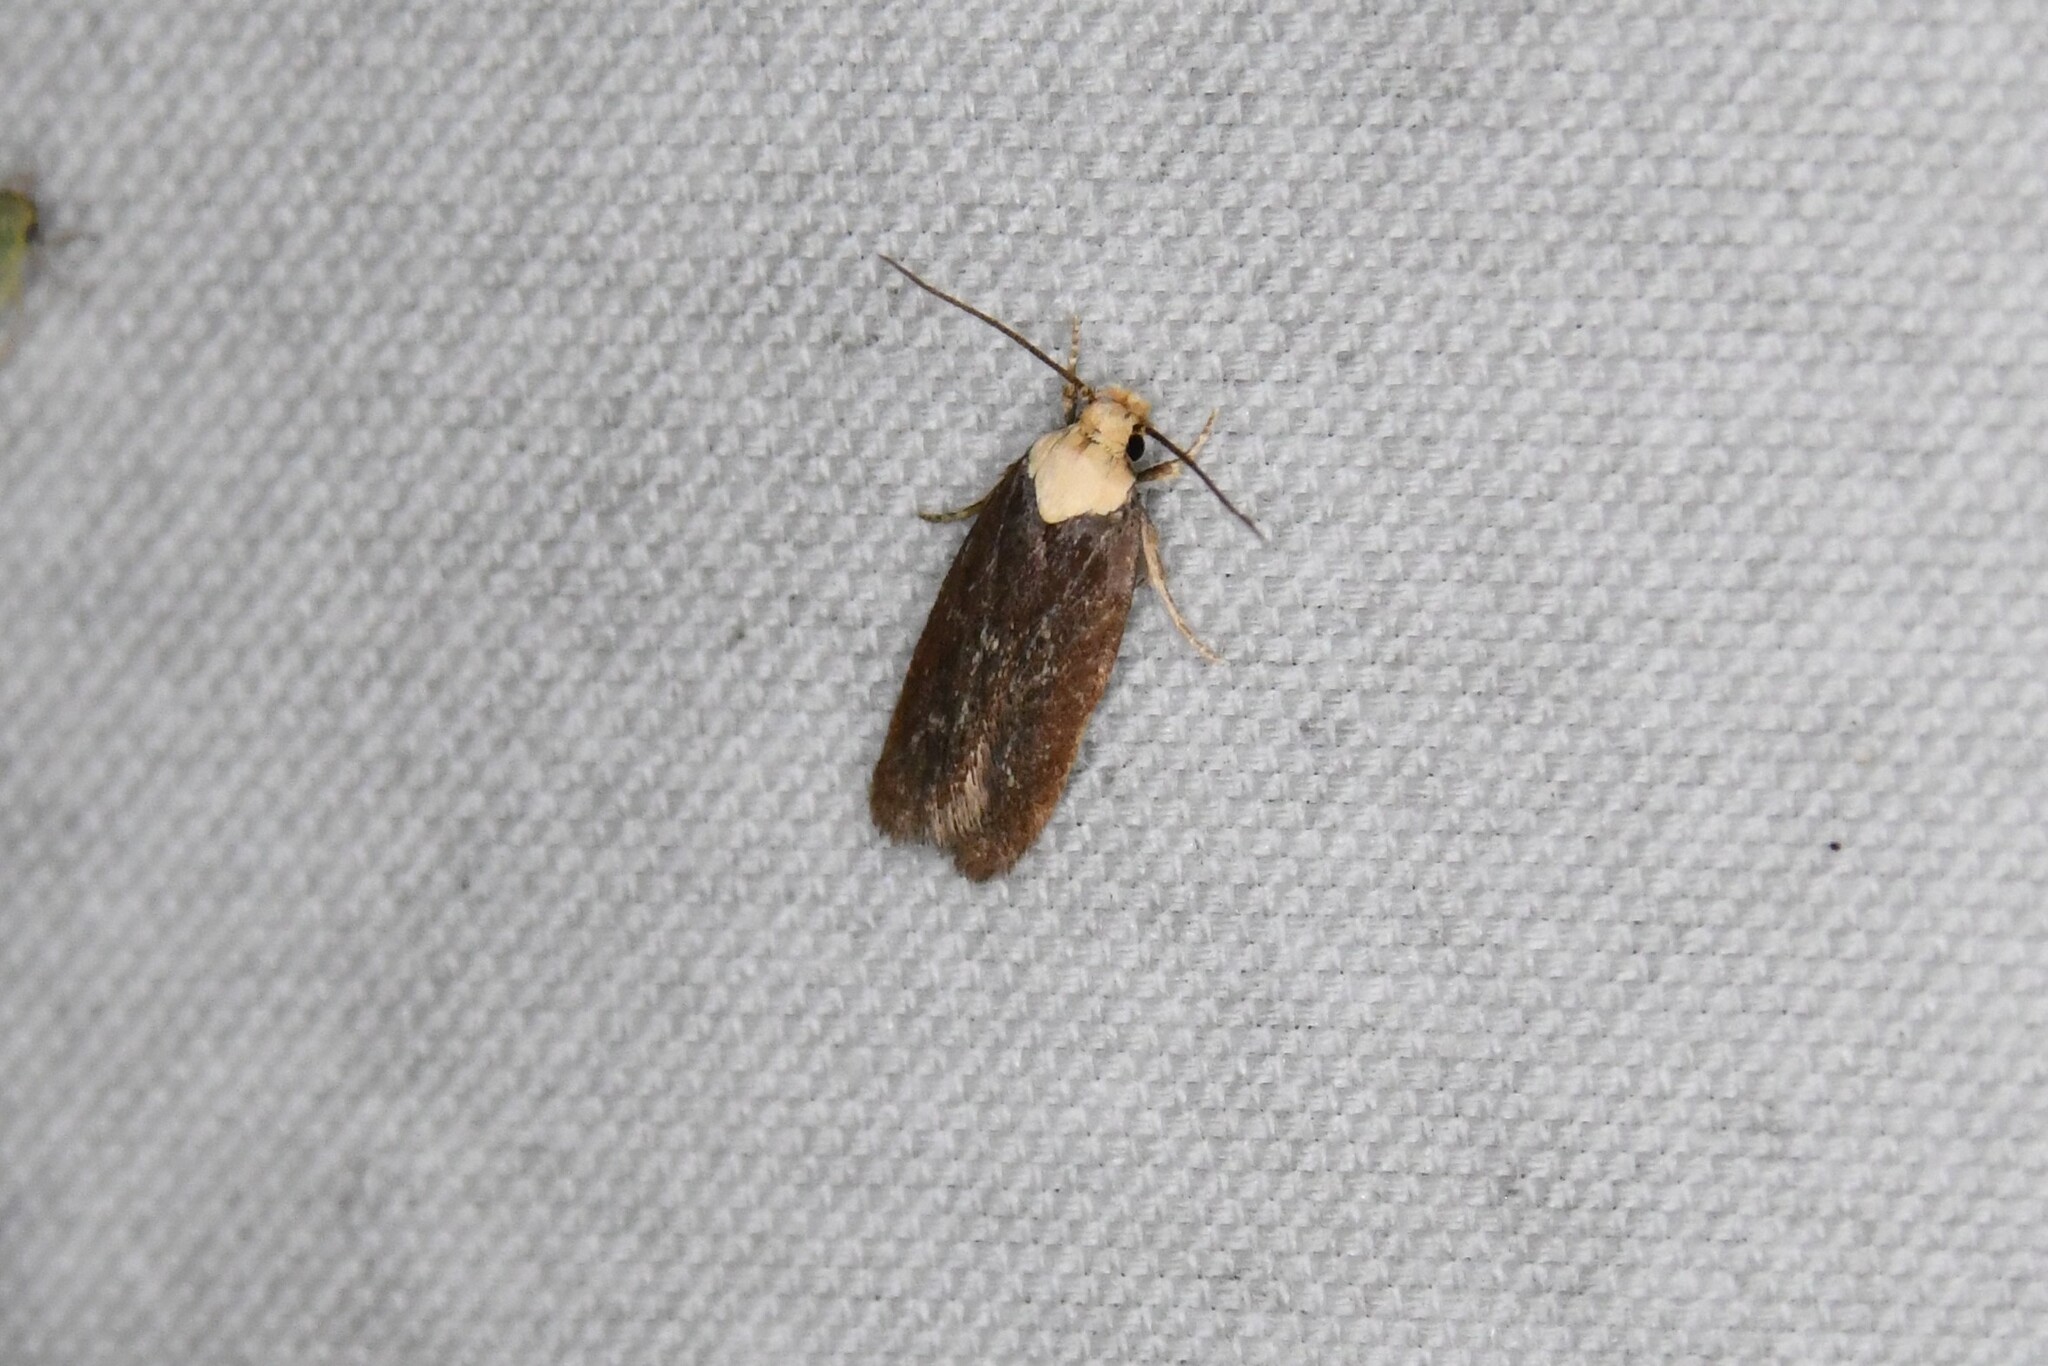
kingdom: Animalia
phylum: Arthropoda
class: Insecta
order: Lepidoptera
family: Depressariidae
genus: Depressaria
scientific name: Depressaria depressana
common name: Lost flat-body
